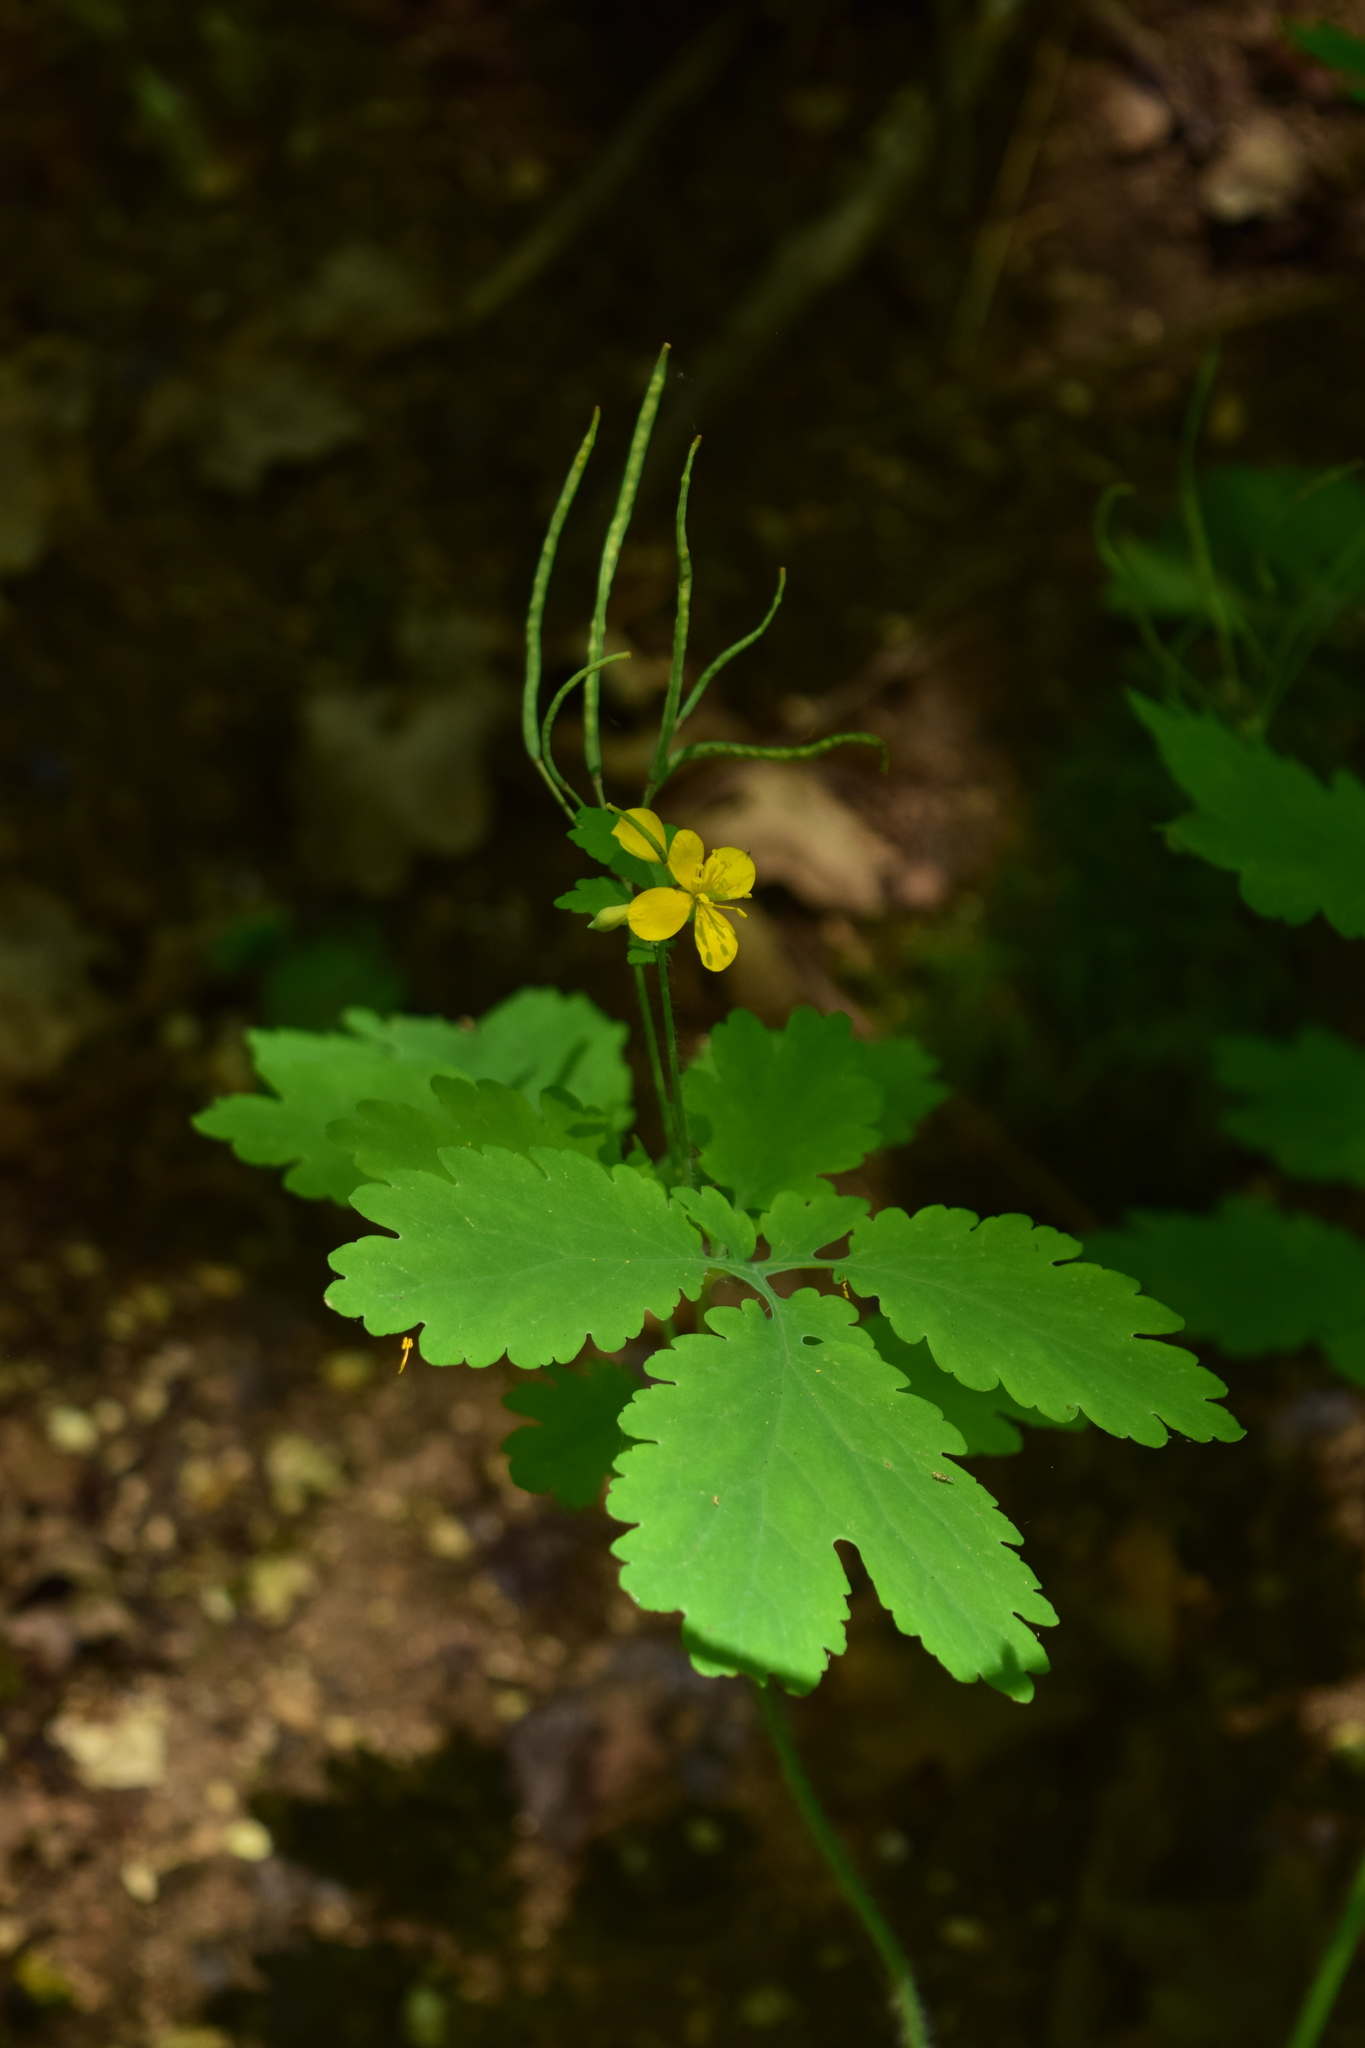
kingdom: Plantae
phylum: Tracheophyta
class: Magnoliopsida
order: Ranunculales
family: Papaveraceae
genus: Chelidonium
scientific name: Chelidonium majus
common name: Greater celandine
